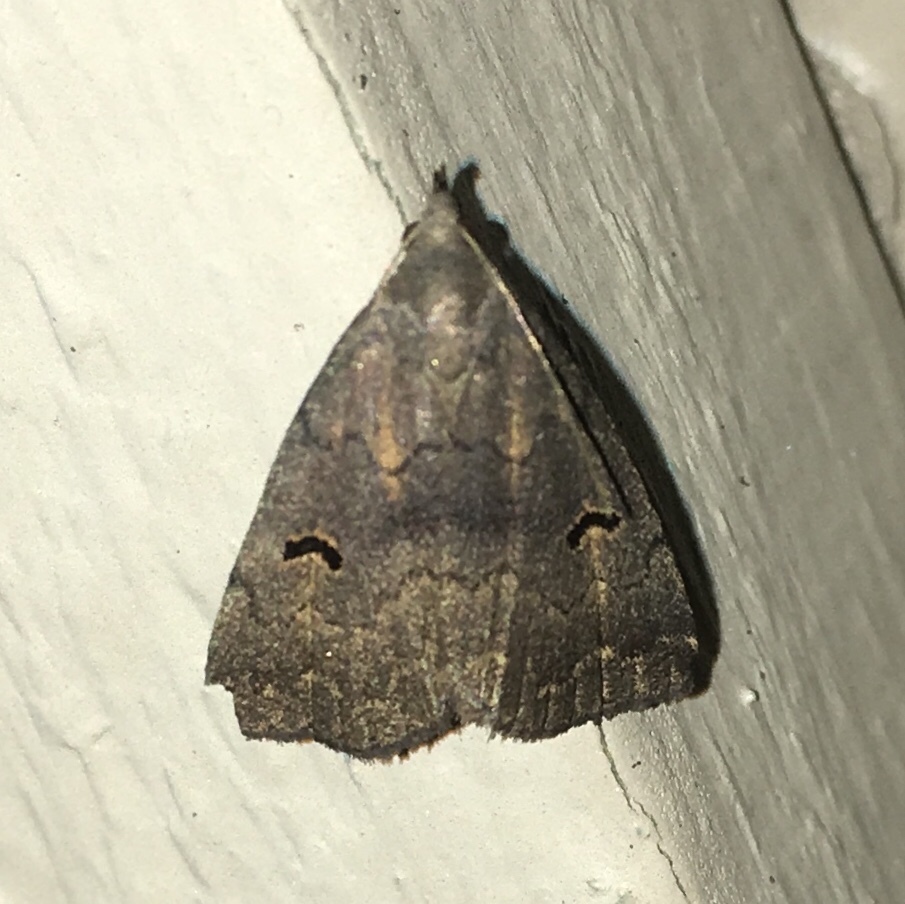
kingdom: Animalia
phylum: Arthropoda
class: Insecta
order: Lepidoptera
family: Erebidae
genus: Phalaenostola
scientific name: Phalaenostola hanhami
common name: Hanham's owlet
